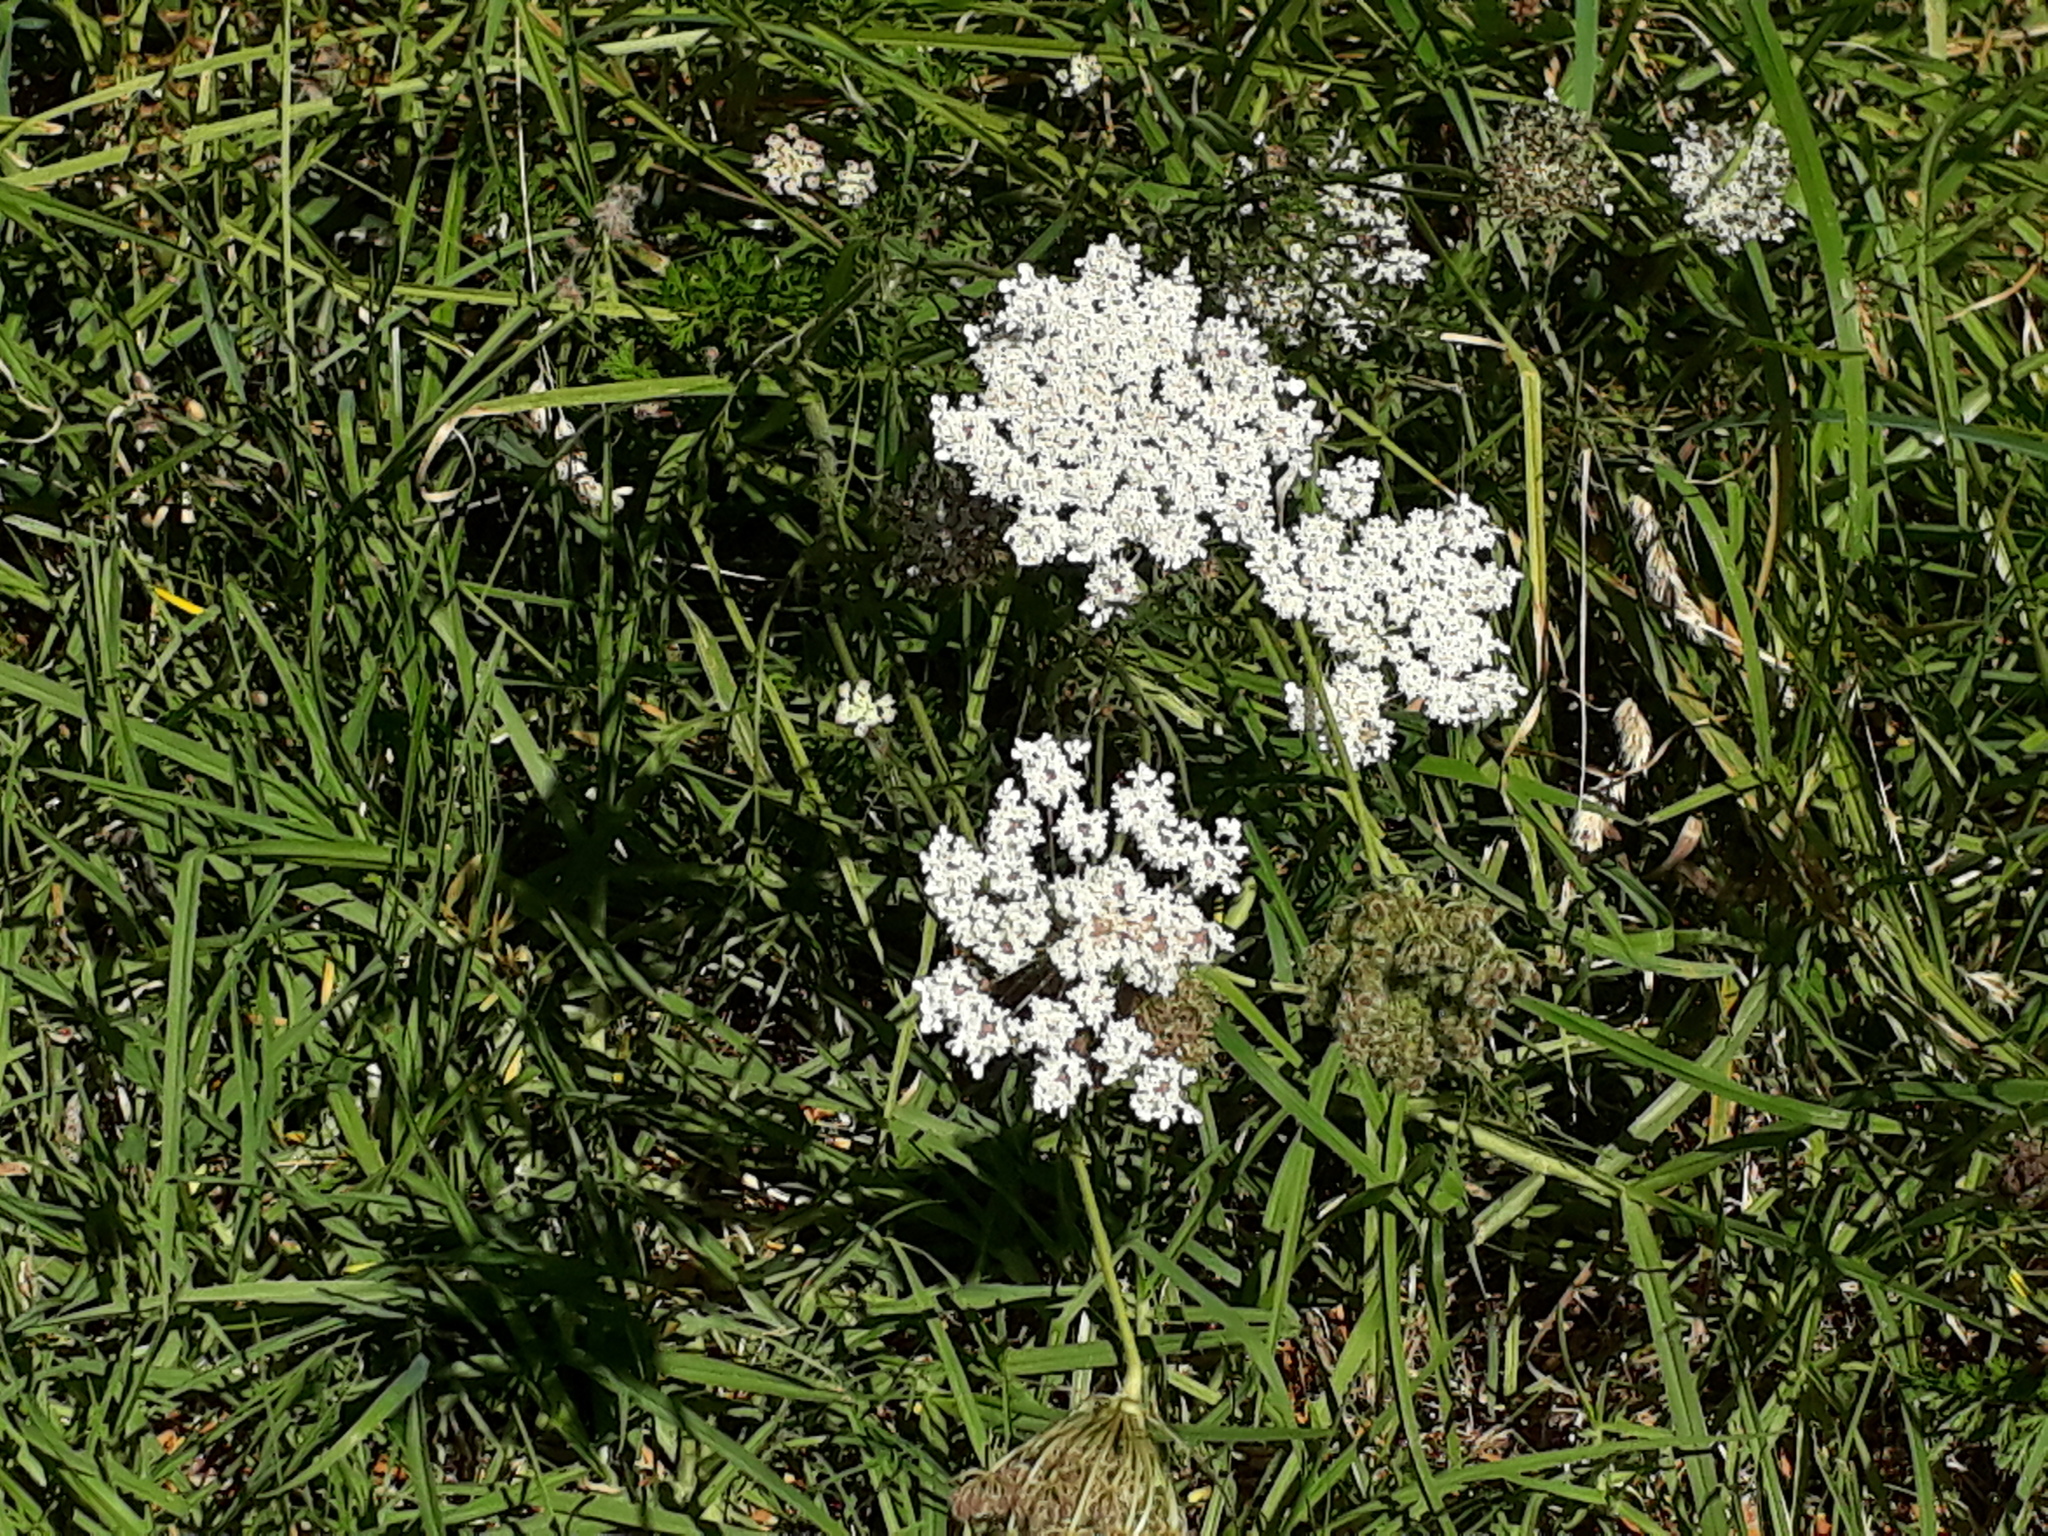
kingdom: Plantae
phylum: Tracheophyta
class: Magnoliopsida
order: Apiales
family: Apiaceae
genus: Daucus
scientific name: Daucus carota
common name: Wild carrot
